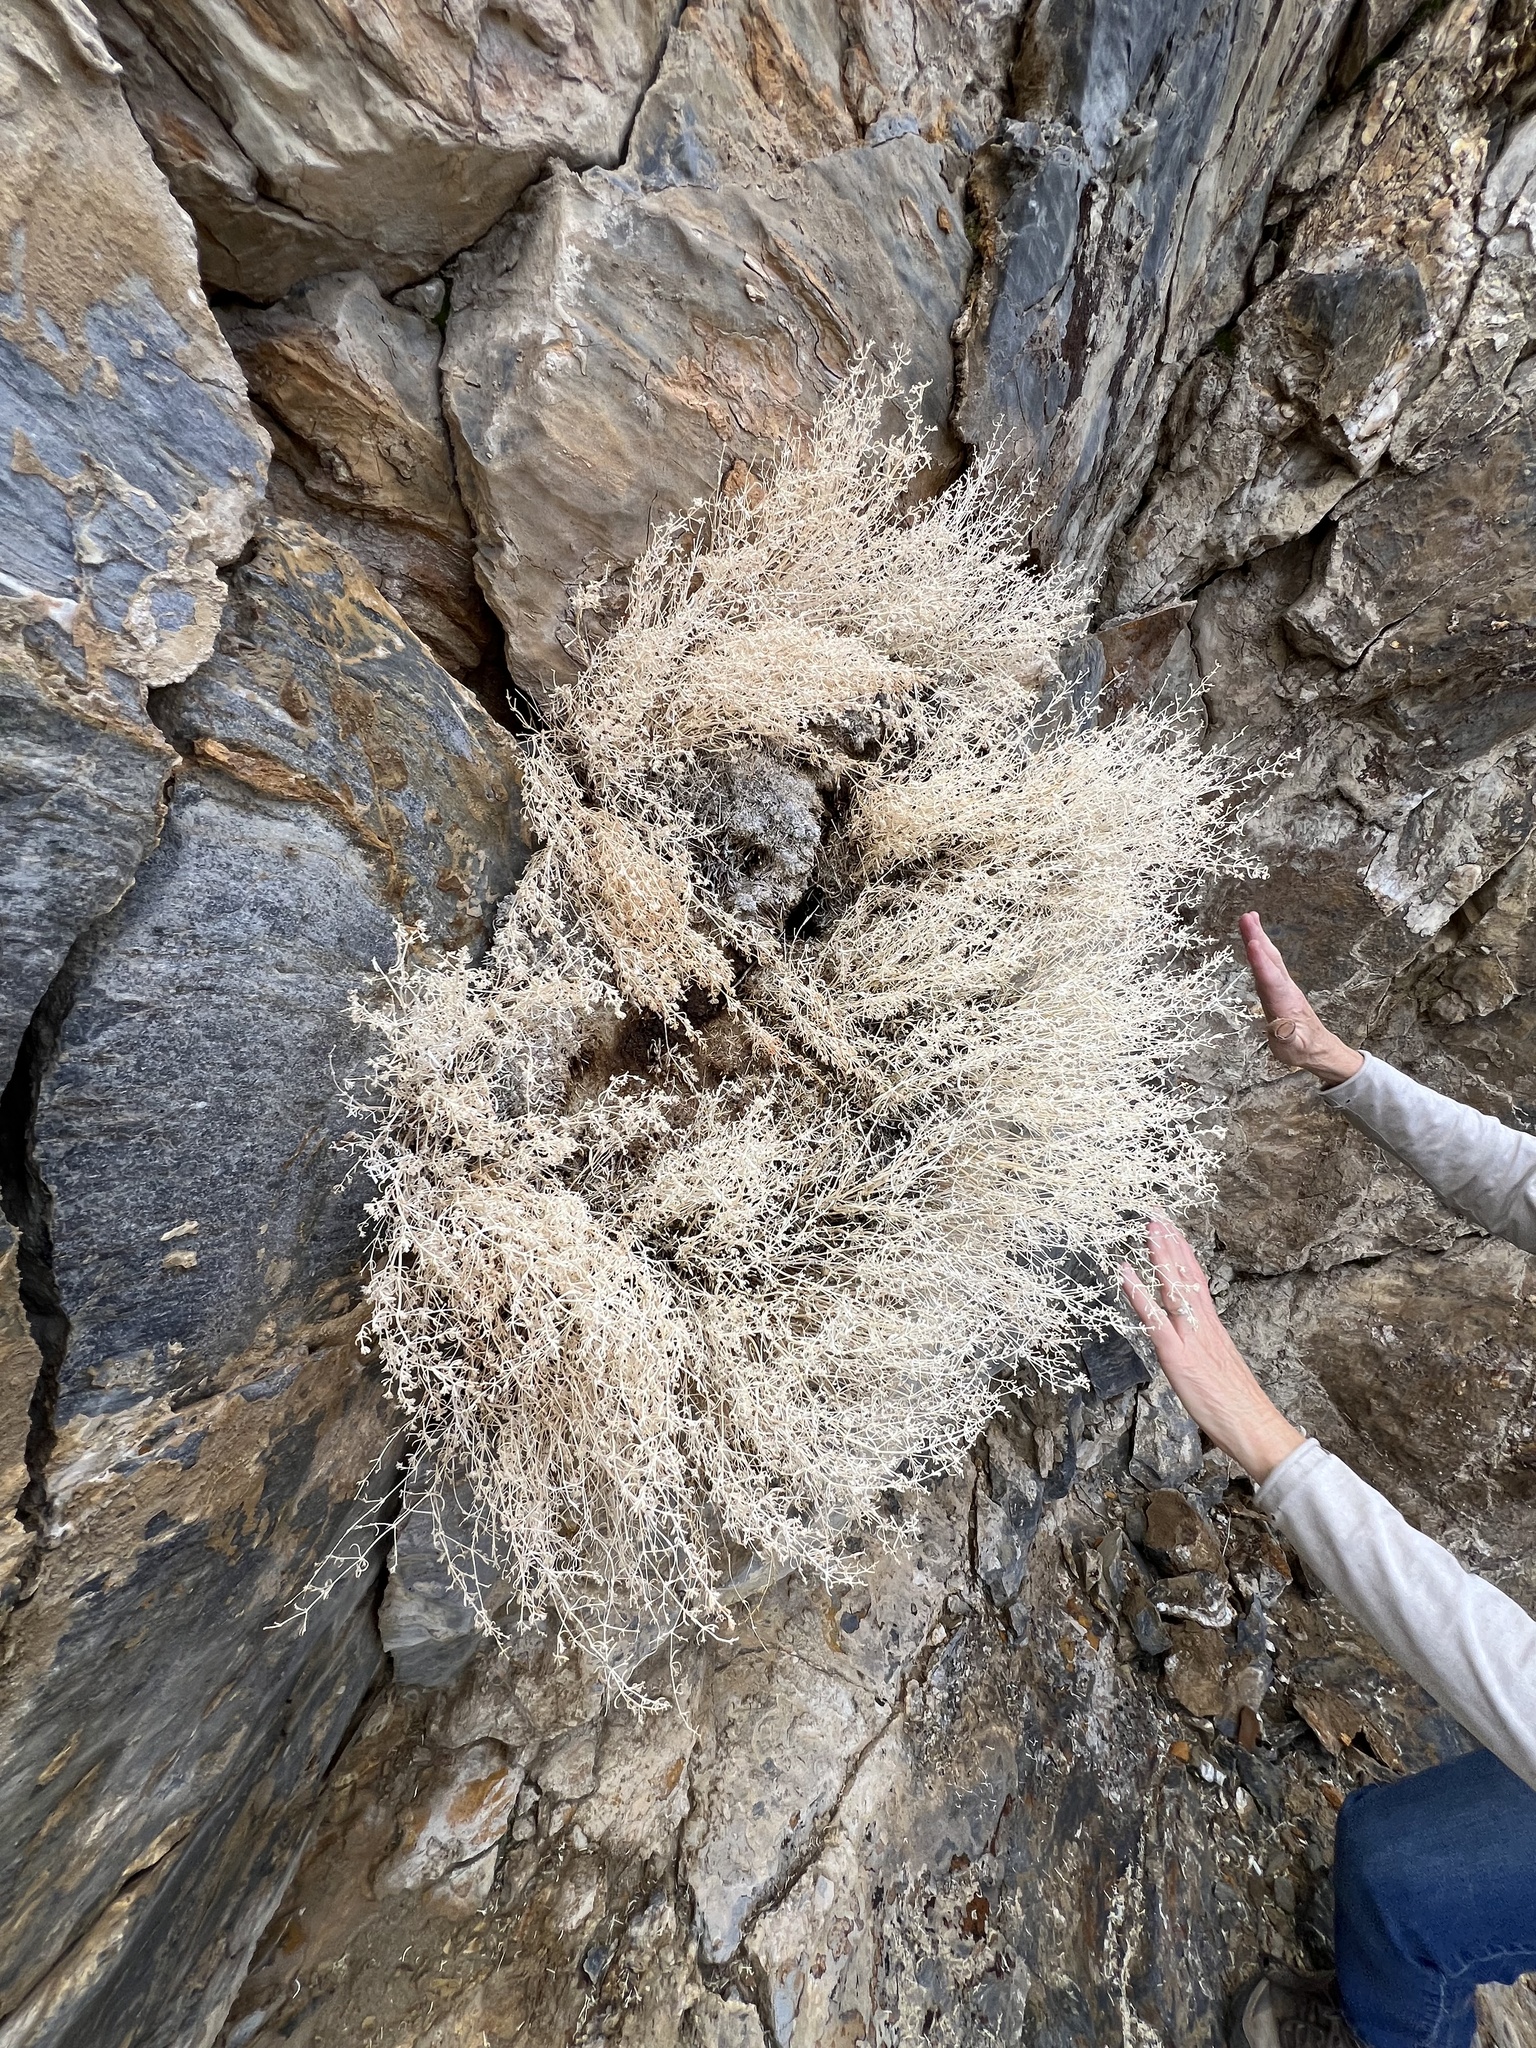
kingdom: Plantae
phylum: Tracheophyta
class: Magnoliopsida
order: Caryophyllales
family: Caryophyllaceae
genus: Scopulophila
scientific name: Scopulophila rixfordii
